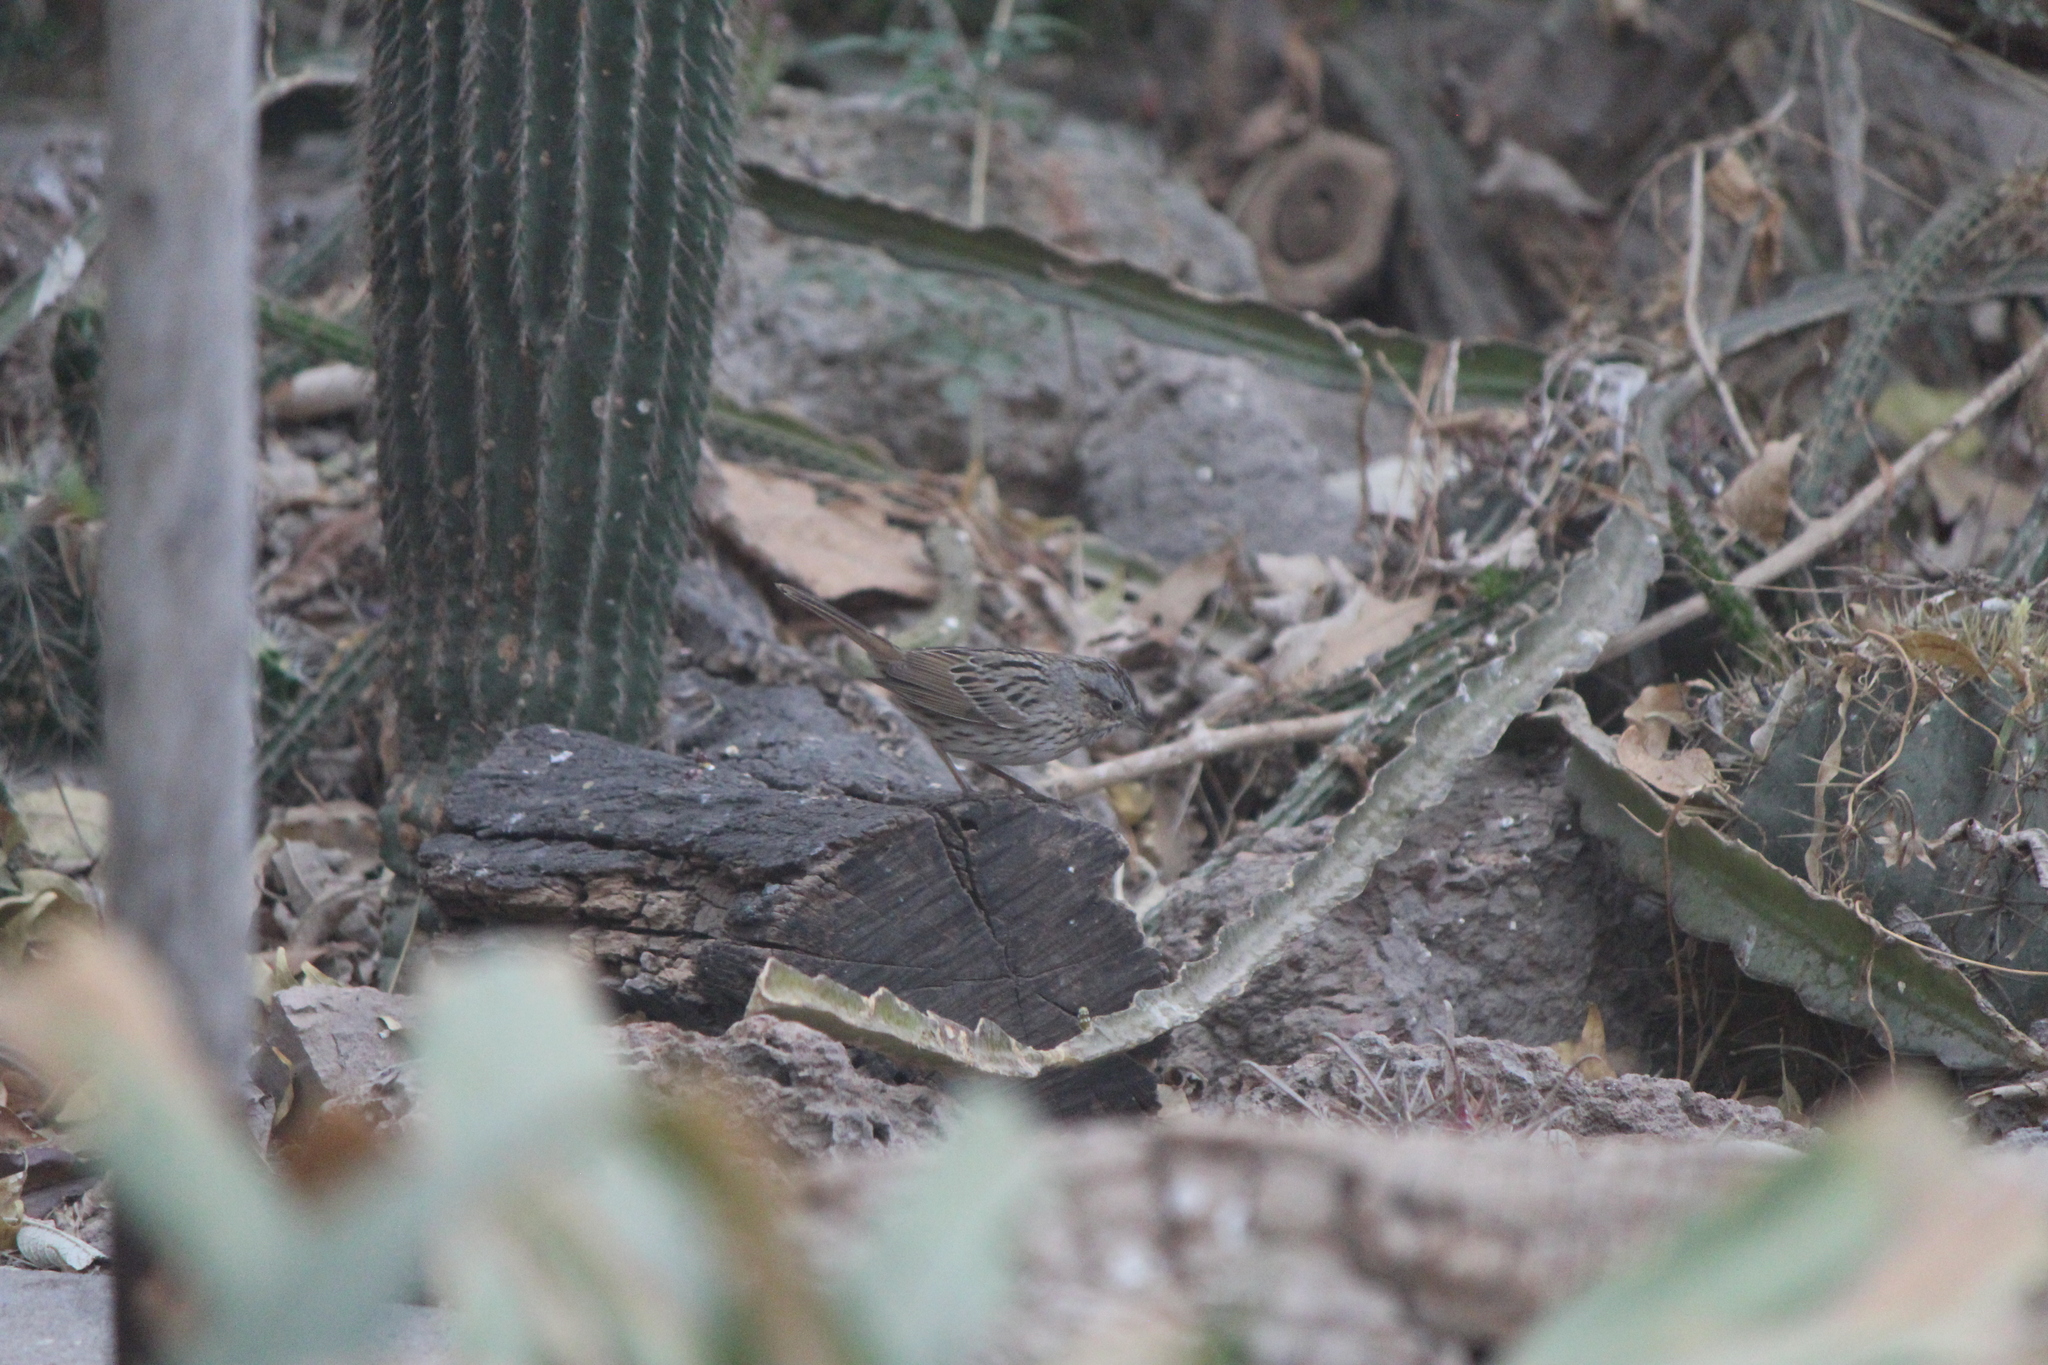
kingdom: Animalia
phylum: Chordata
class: Aves
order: Passeriformes
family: Passerellidae
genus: Melospiza
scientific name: Melospiza lincolnii
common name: Lincoln's sparrow
